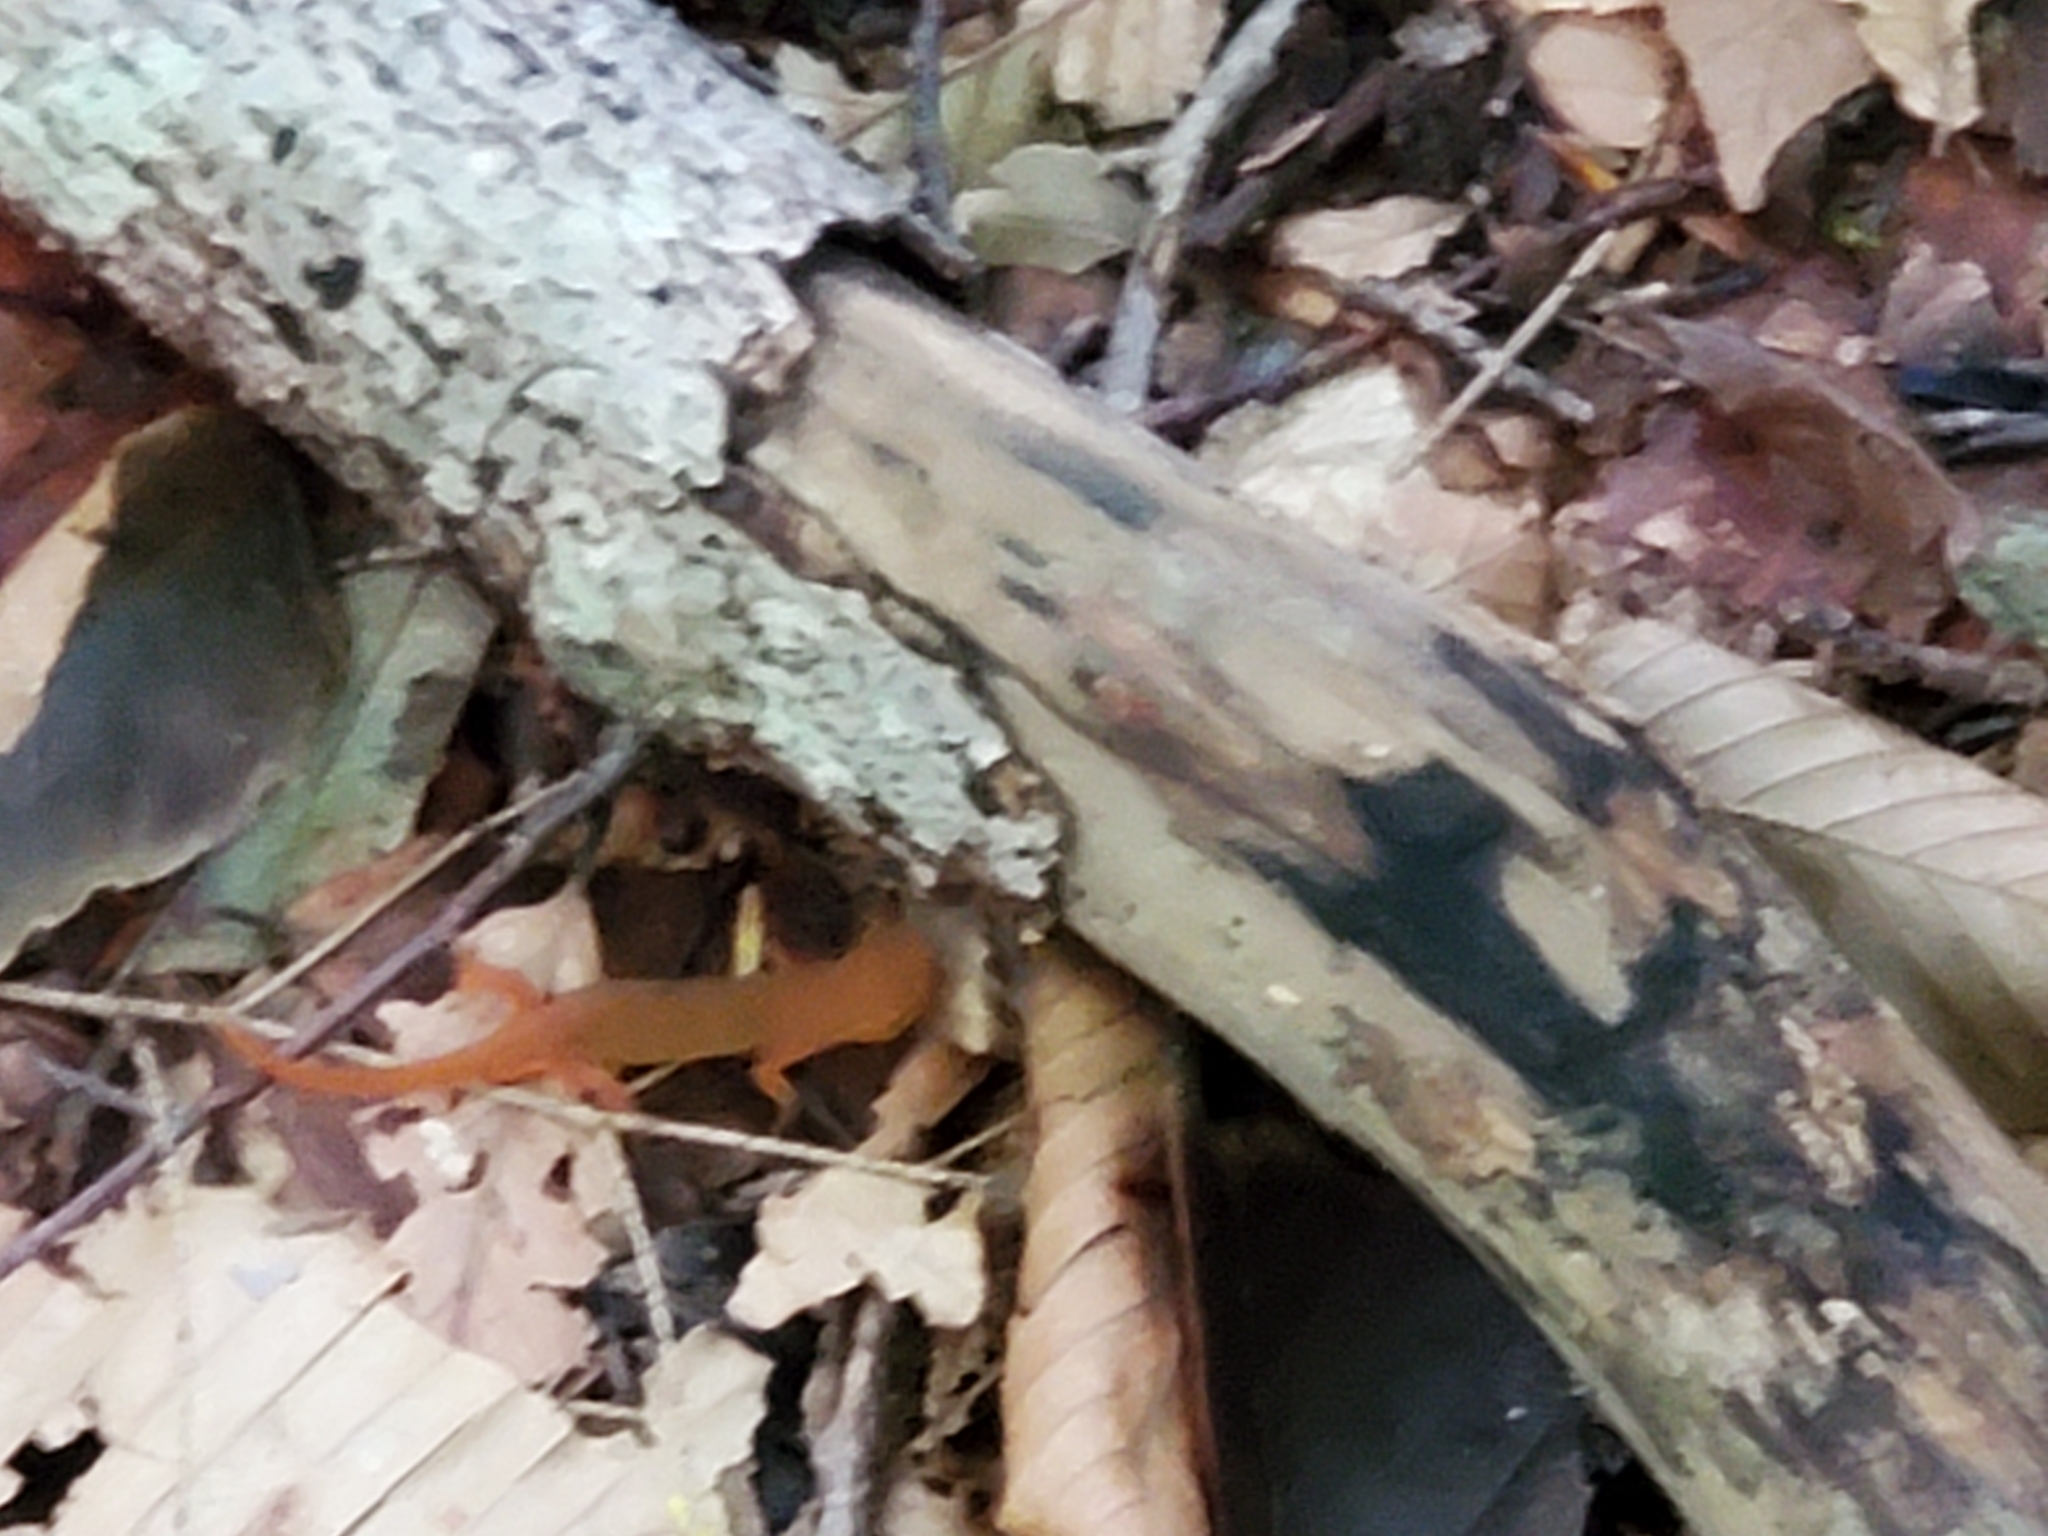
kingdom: Animalia
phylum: Chordata
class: Amphibia
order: Caudata
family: Salamandridae
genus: Notophthalmus
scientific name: Notophthalmus viridescens
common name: Eastern newt
